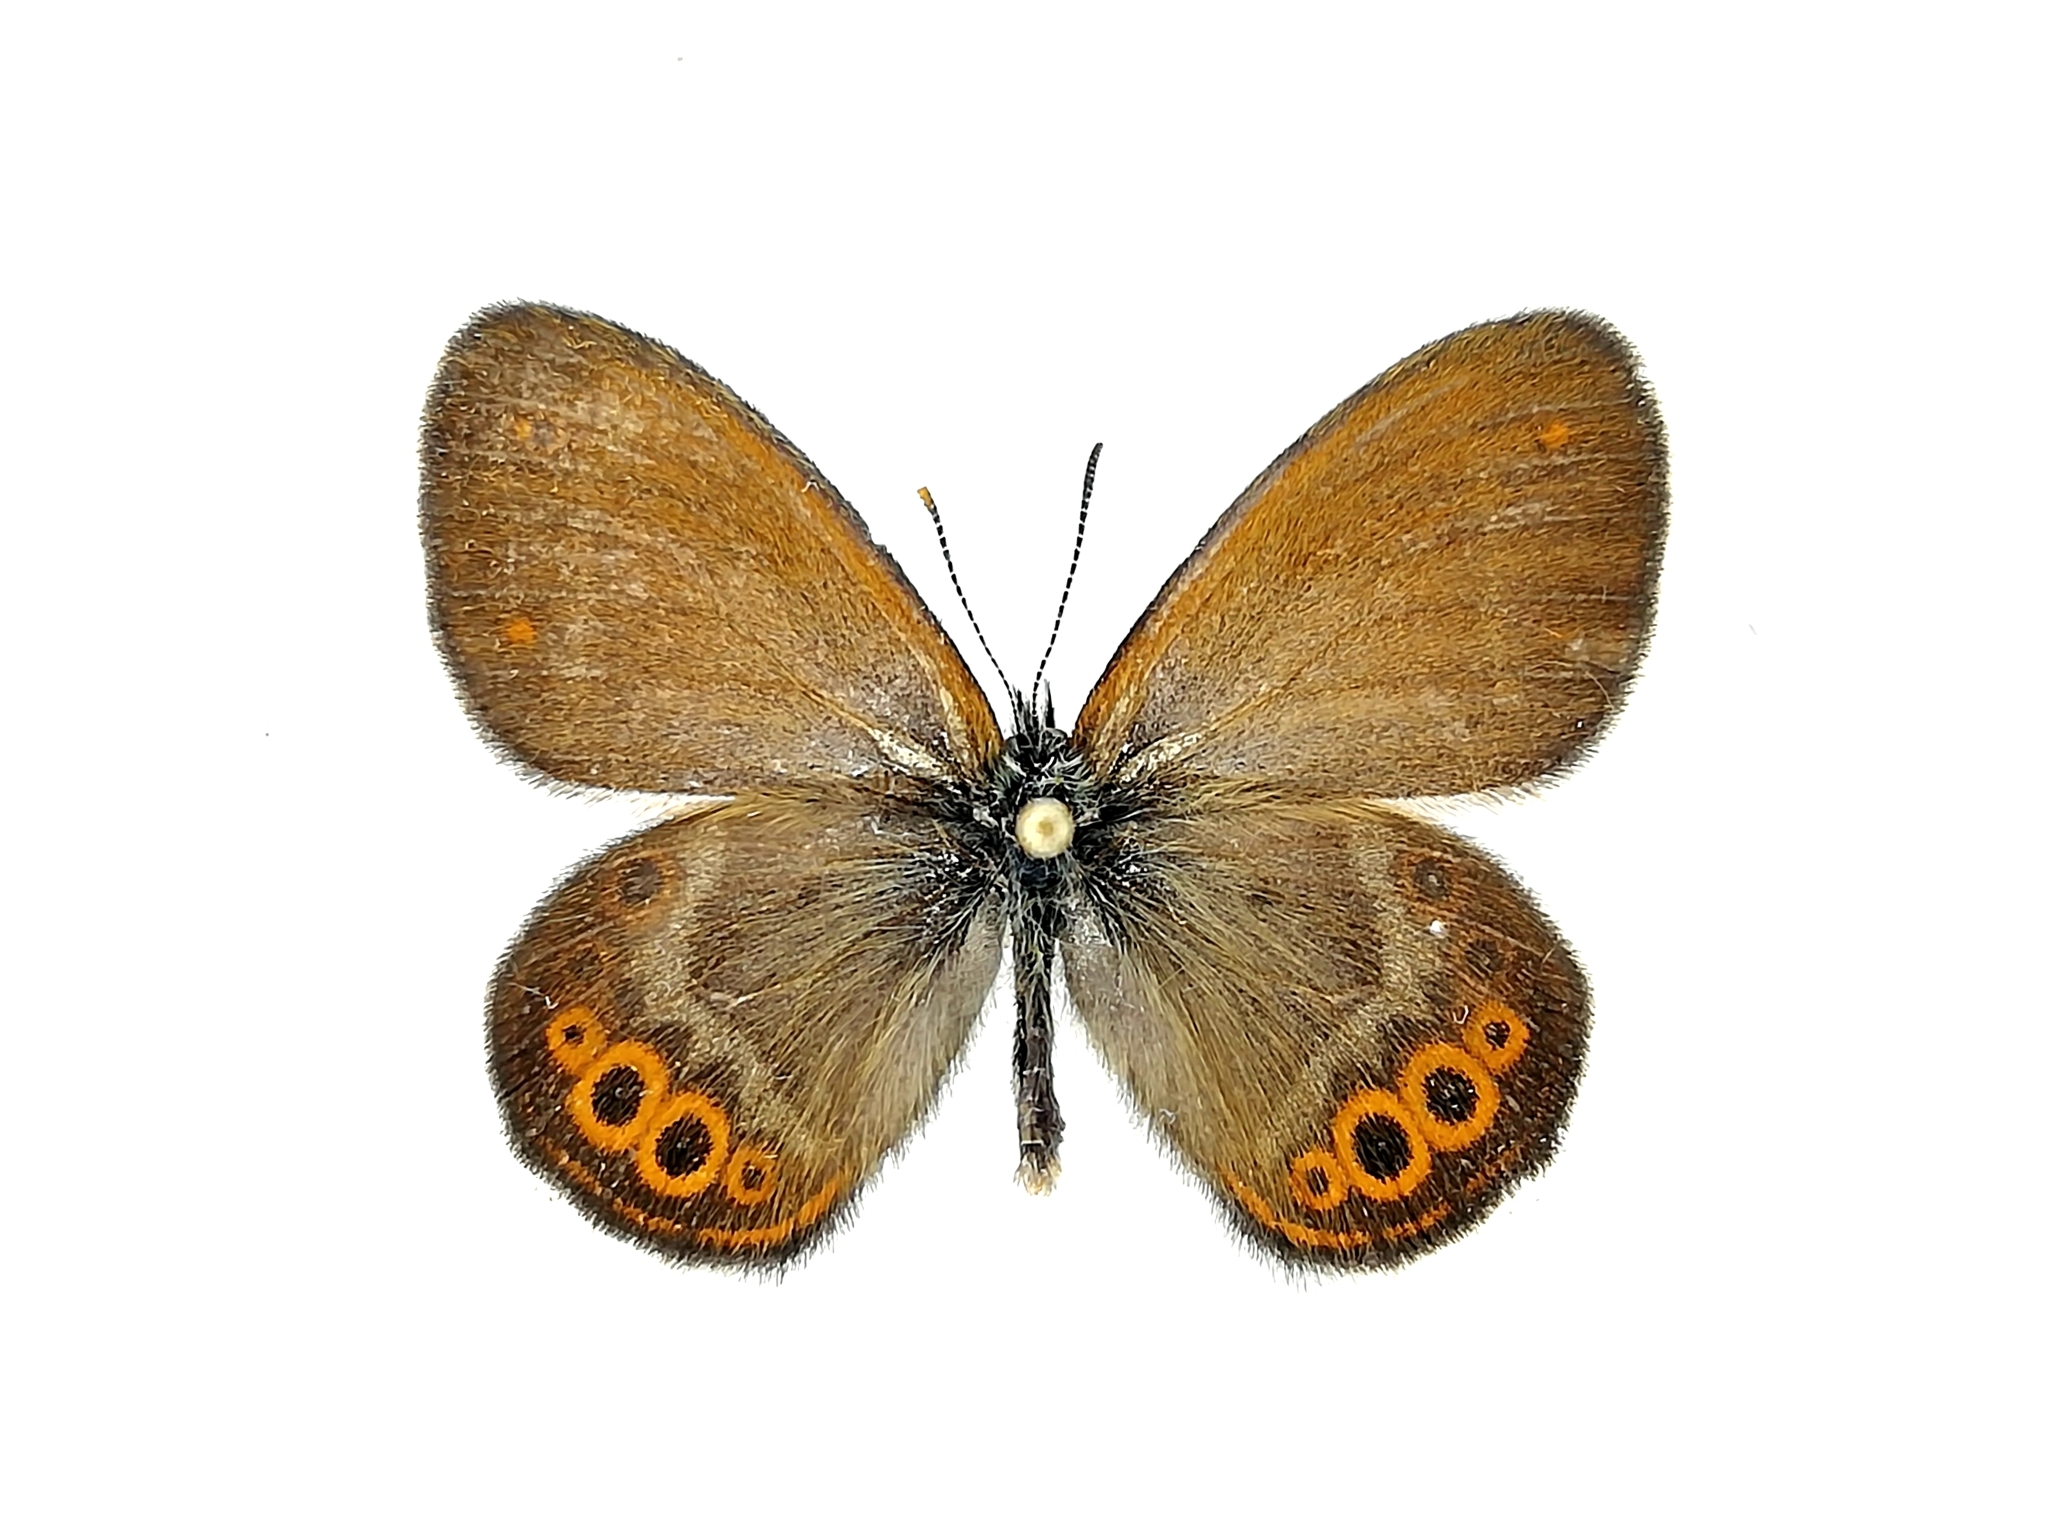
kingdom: Animalia
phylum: Arthropoda
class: Insecta
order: Lepidoptera
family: Nymphalidae
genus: Coenonympha
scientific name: Coenonympha hero
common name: Scarce heath
